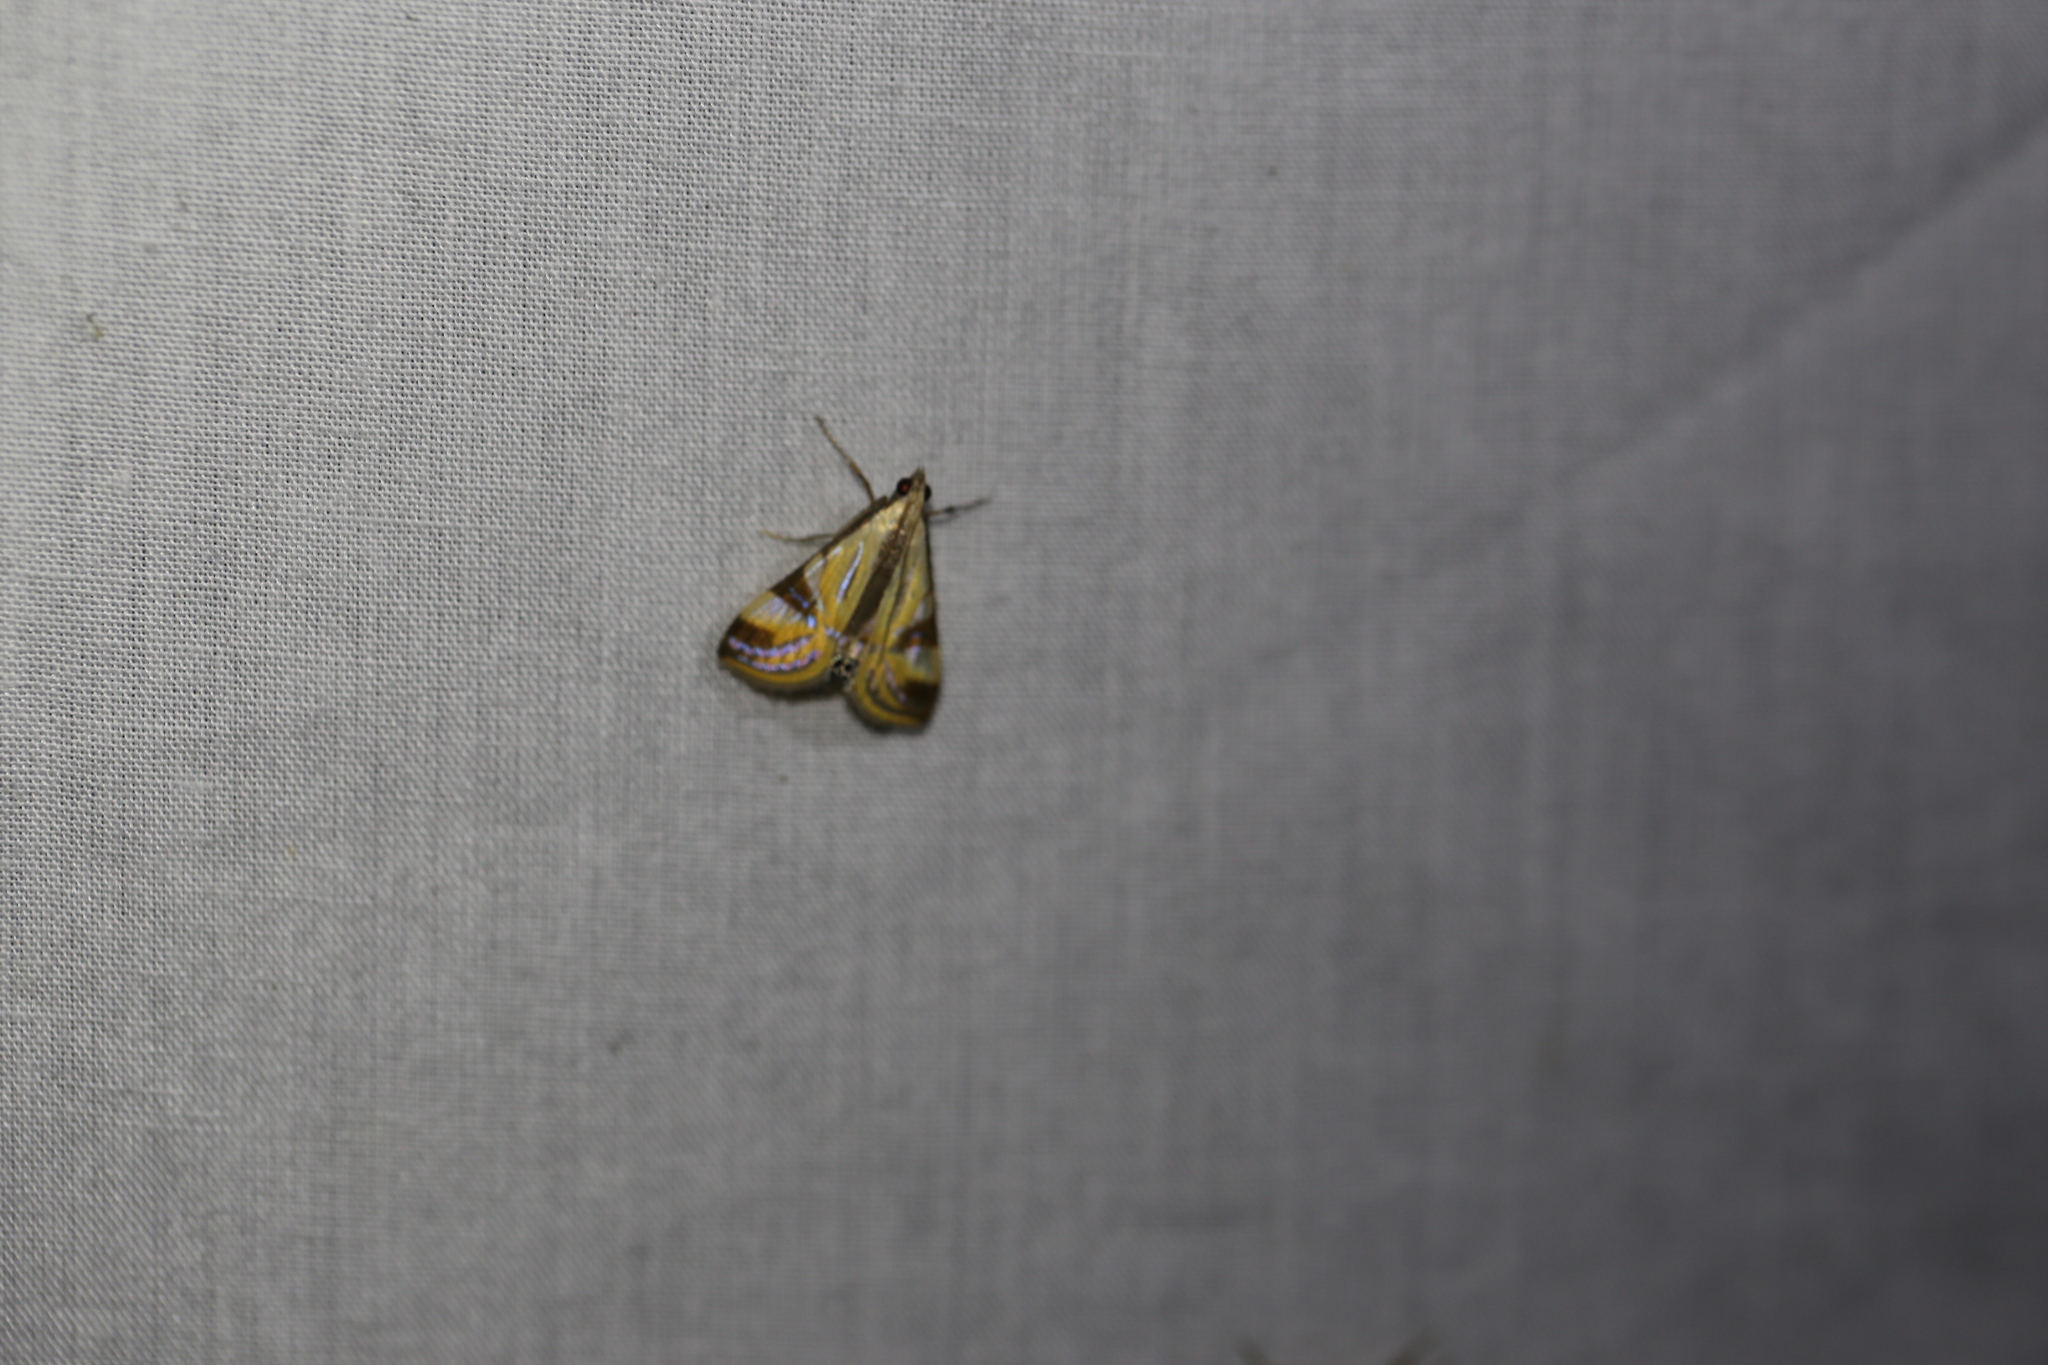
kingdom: Animalia
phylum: Arthropoda
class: Insecta
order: Lepidoptera
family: Crambidae
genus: Talanga
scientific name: Talanga tolumnialis
